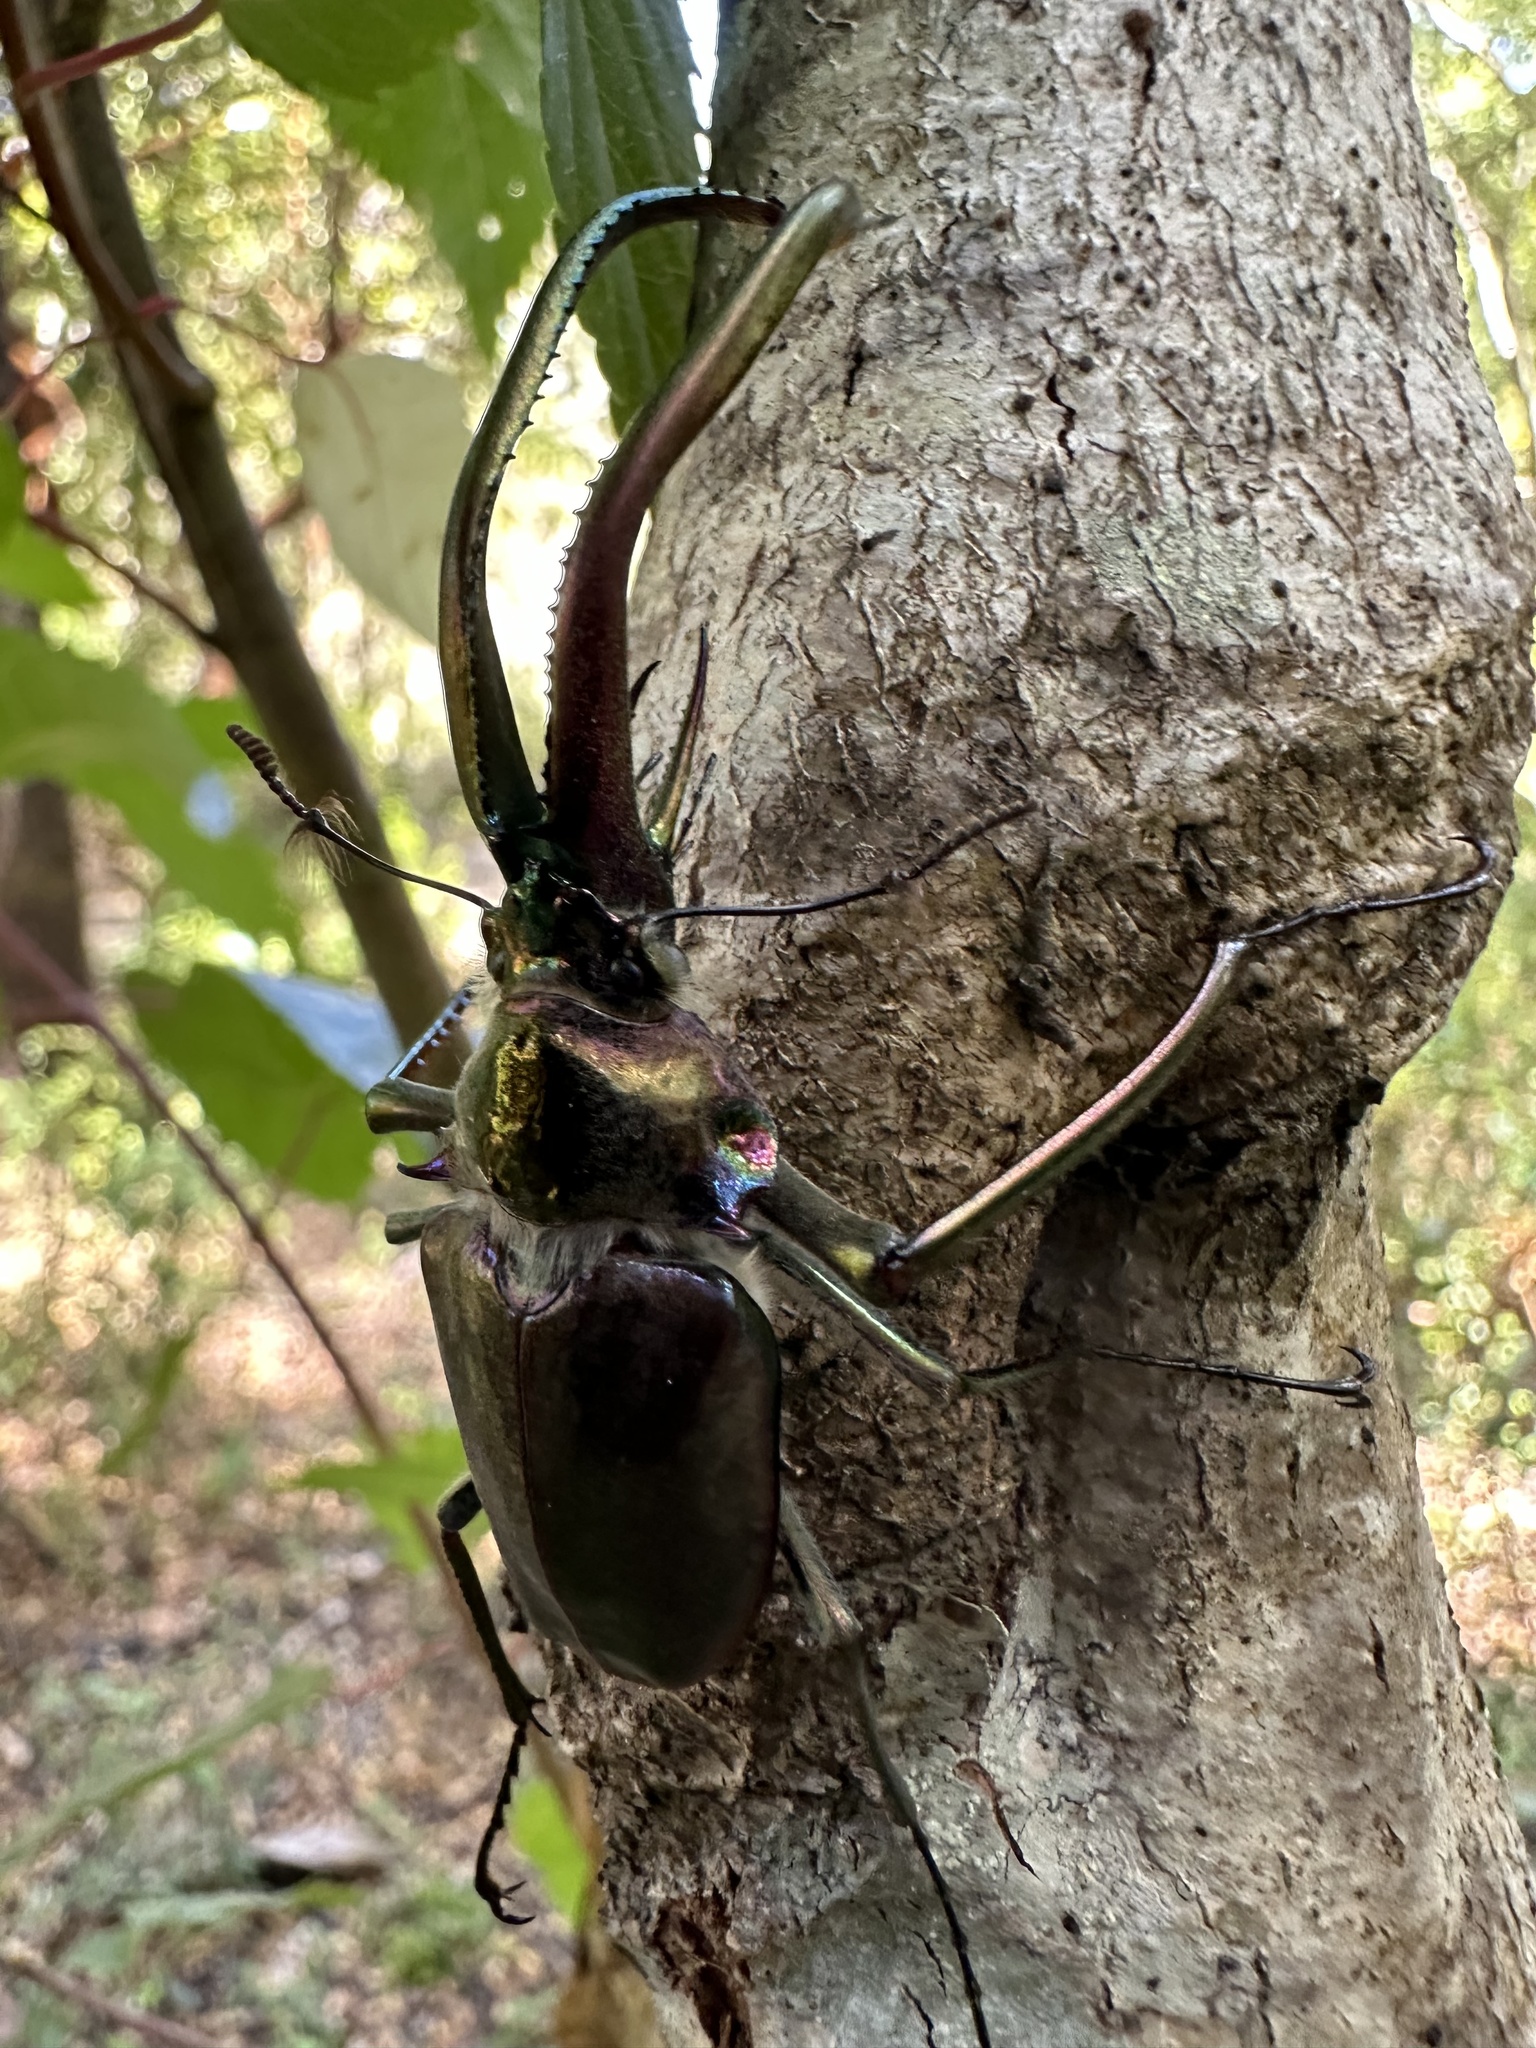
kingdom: Animalia
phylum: Arthropoda
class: Insecta
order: Coleoptera
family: Lucanidae
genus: Chiasognathus
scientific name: Chiasognathus grantii
